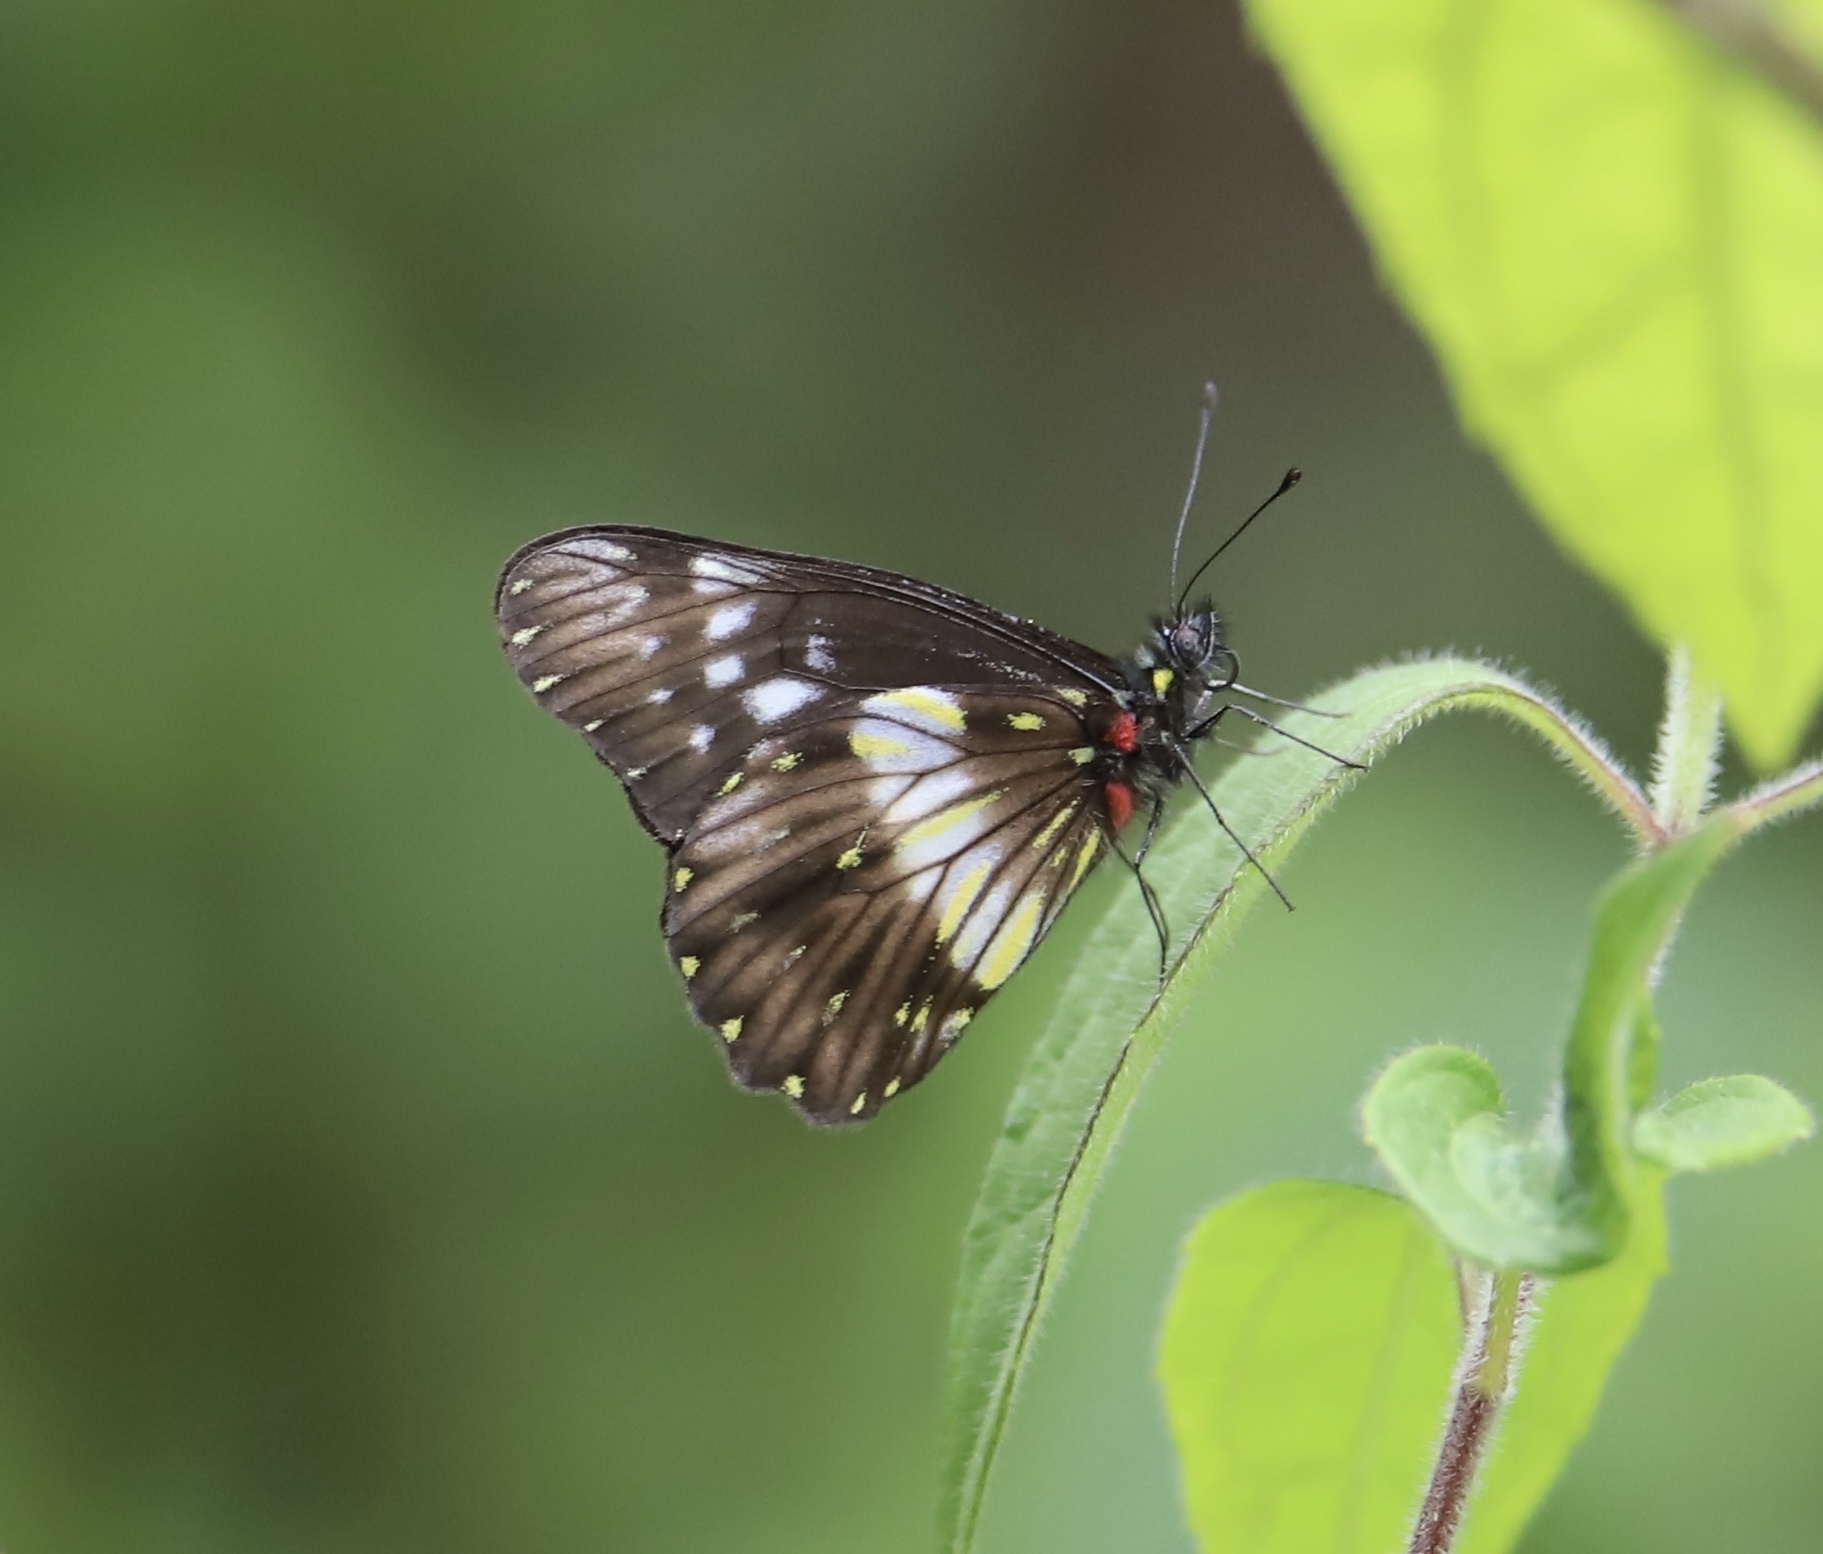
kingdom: Animalia
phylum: Arthropoda
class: Insecta
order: Lepidoptera
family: Pieridae
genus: Archonias
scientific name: Archonias flisa
